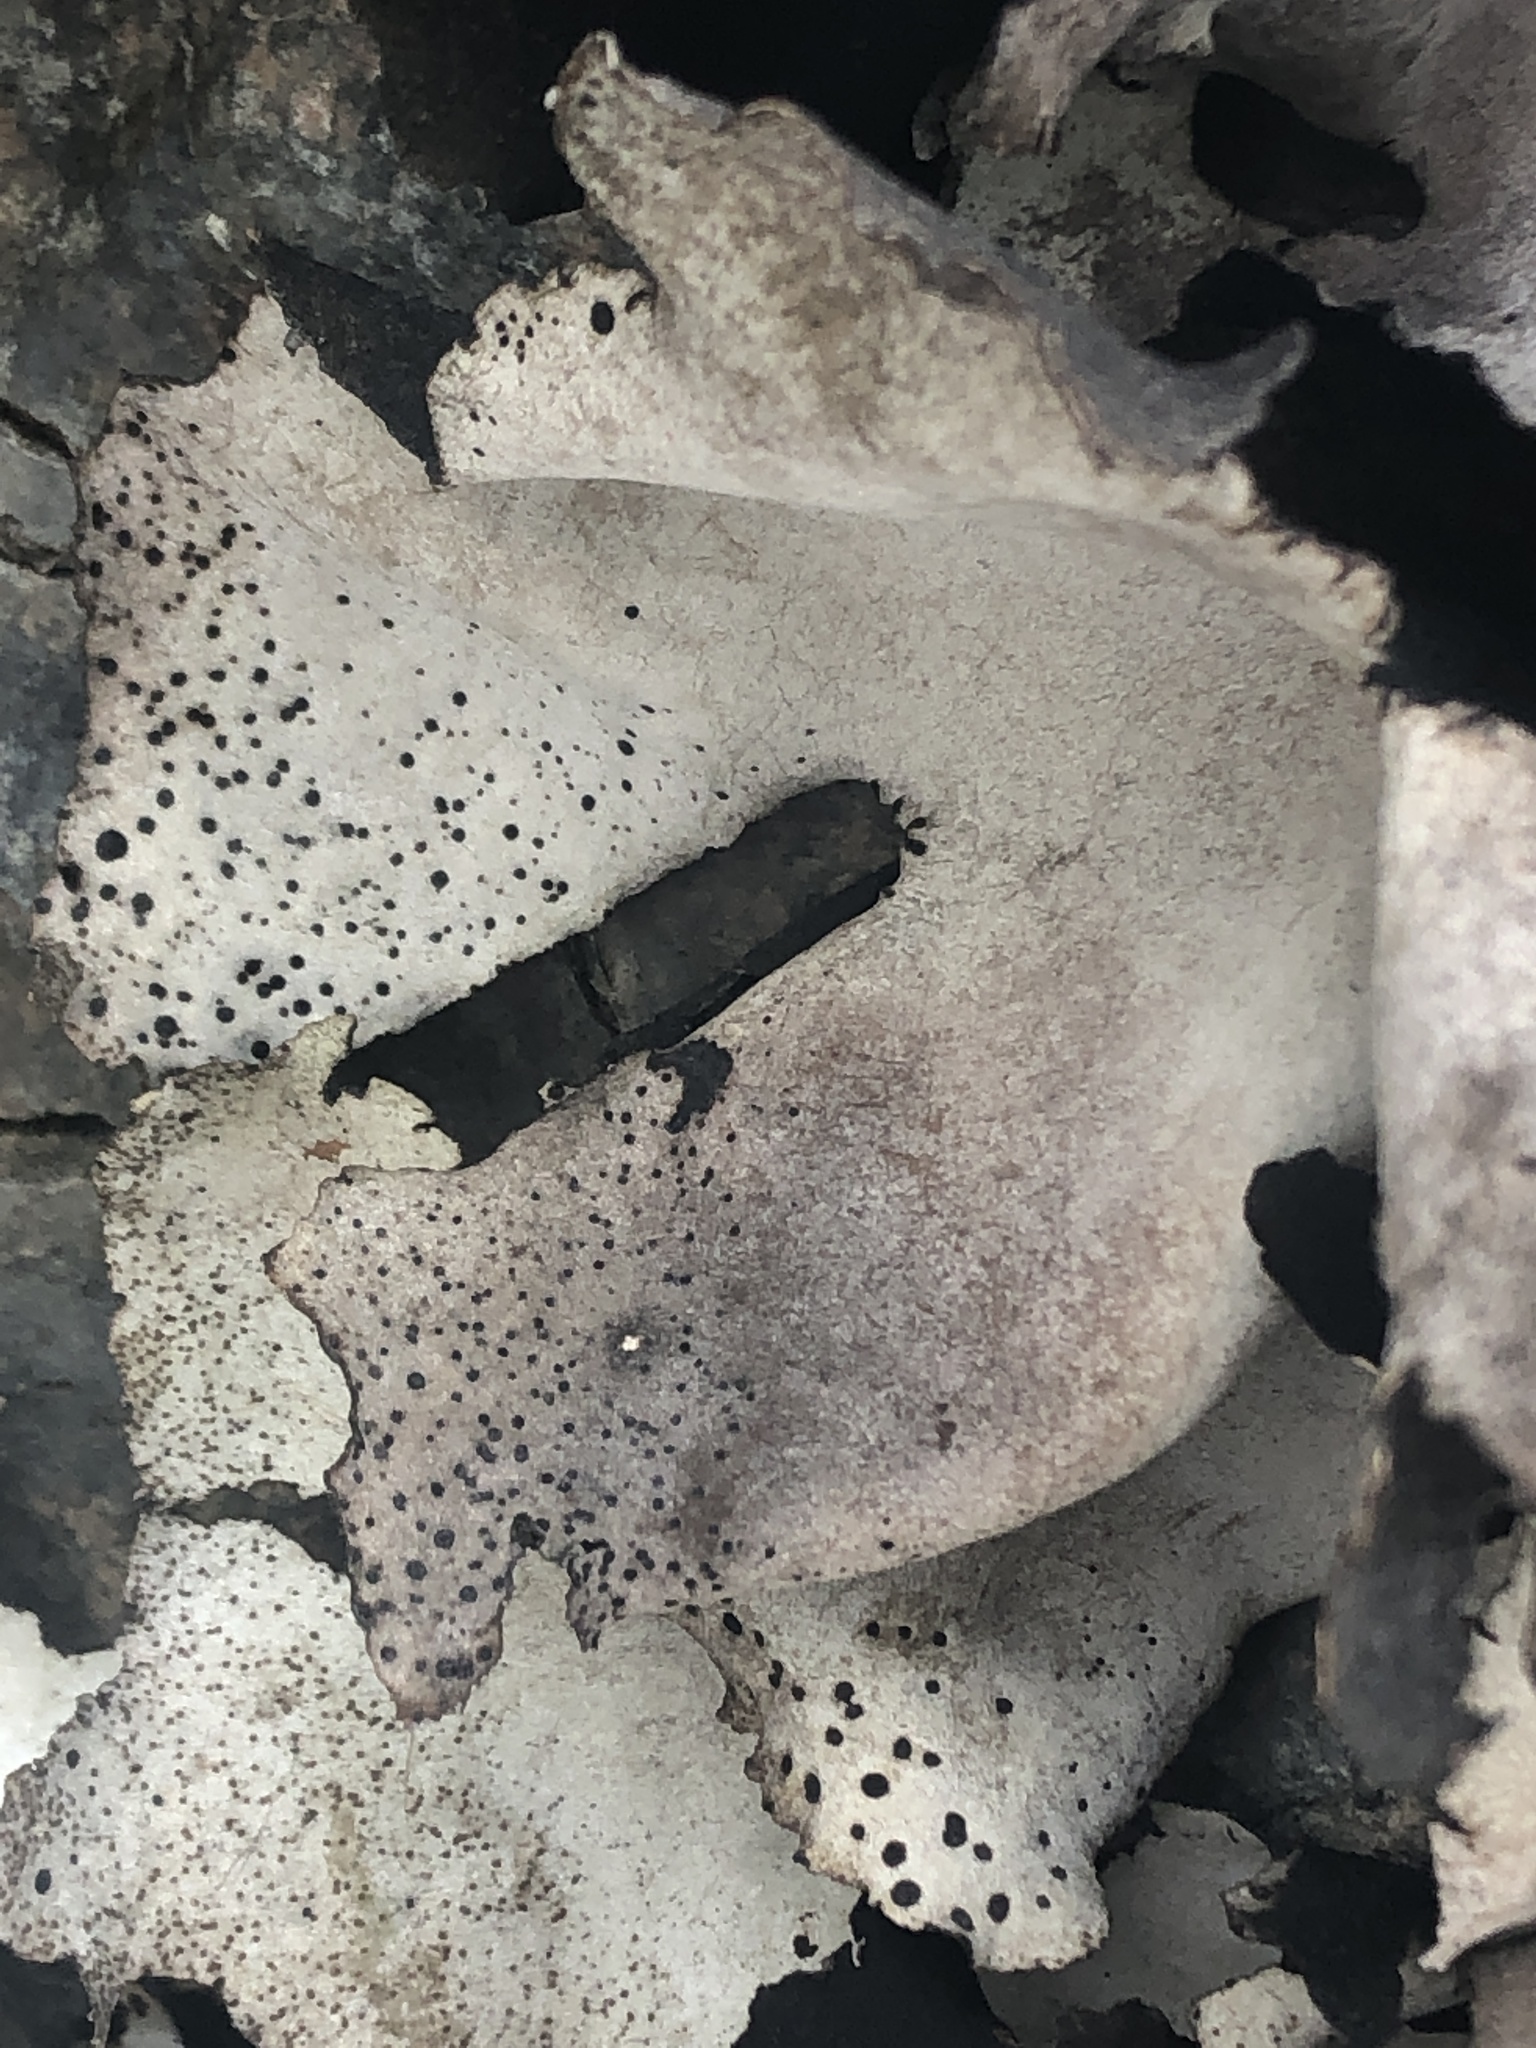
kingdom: Fungi
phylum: Ascomycota
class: Lecanoromycetes
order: Umbilicariales
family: Umbilicariaceae
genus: Umbilicaria
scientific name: Umbilicaria americana
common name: Frosted rock tripe
